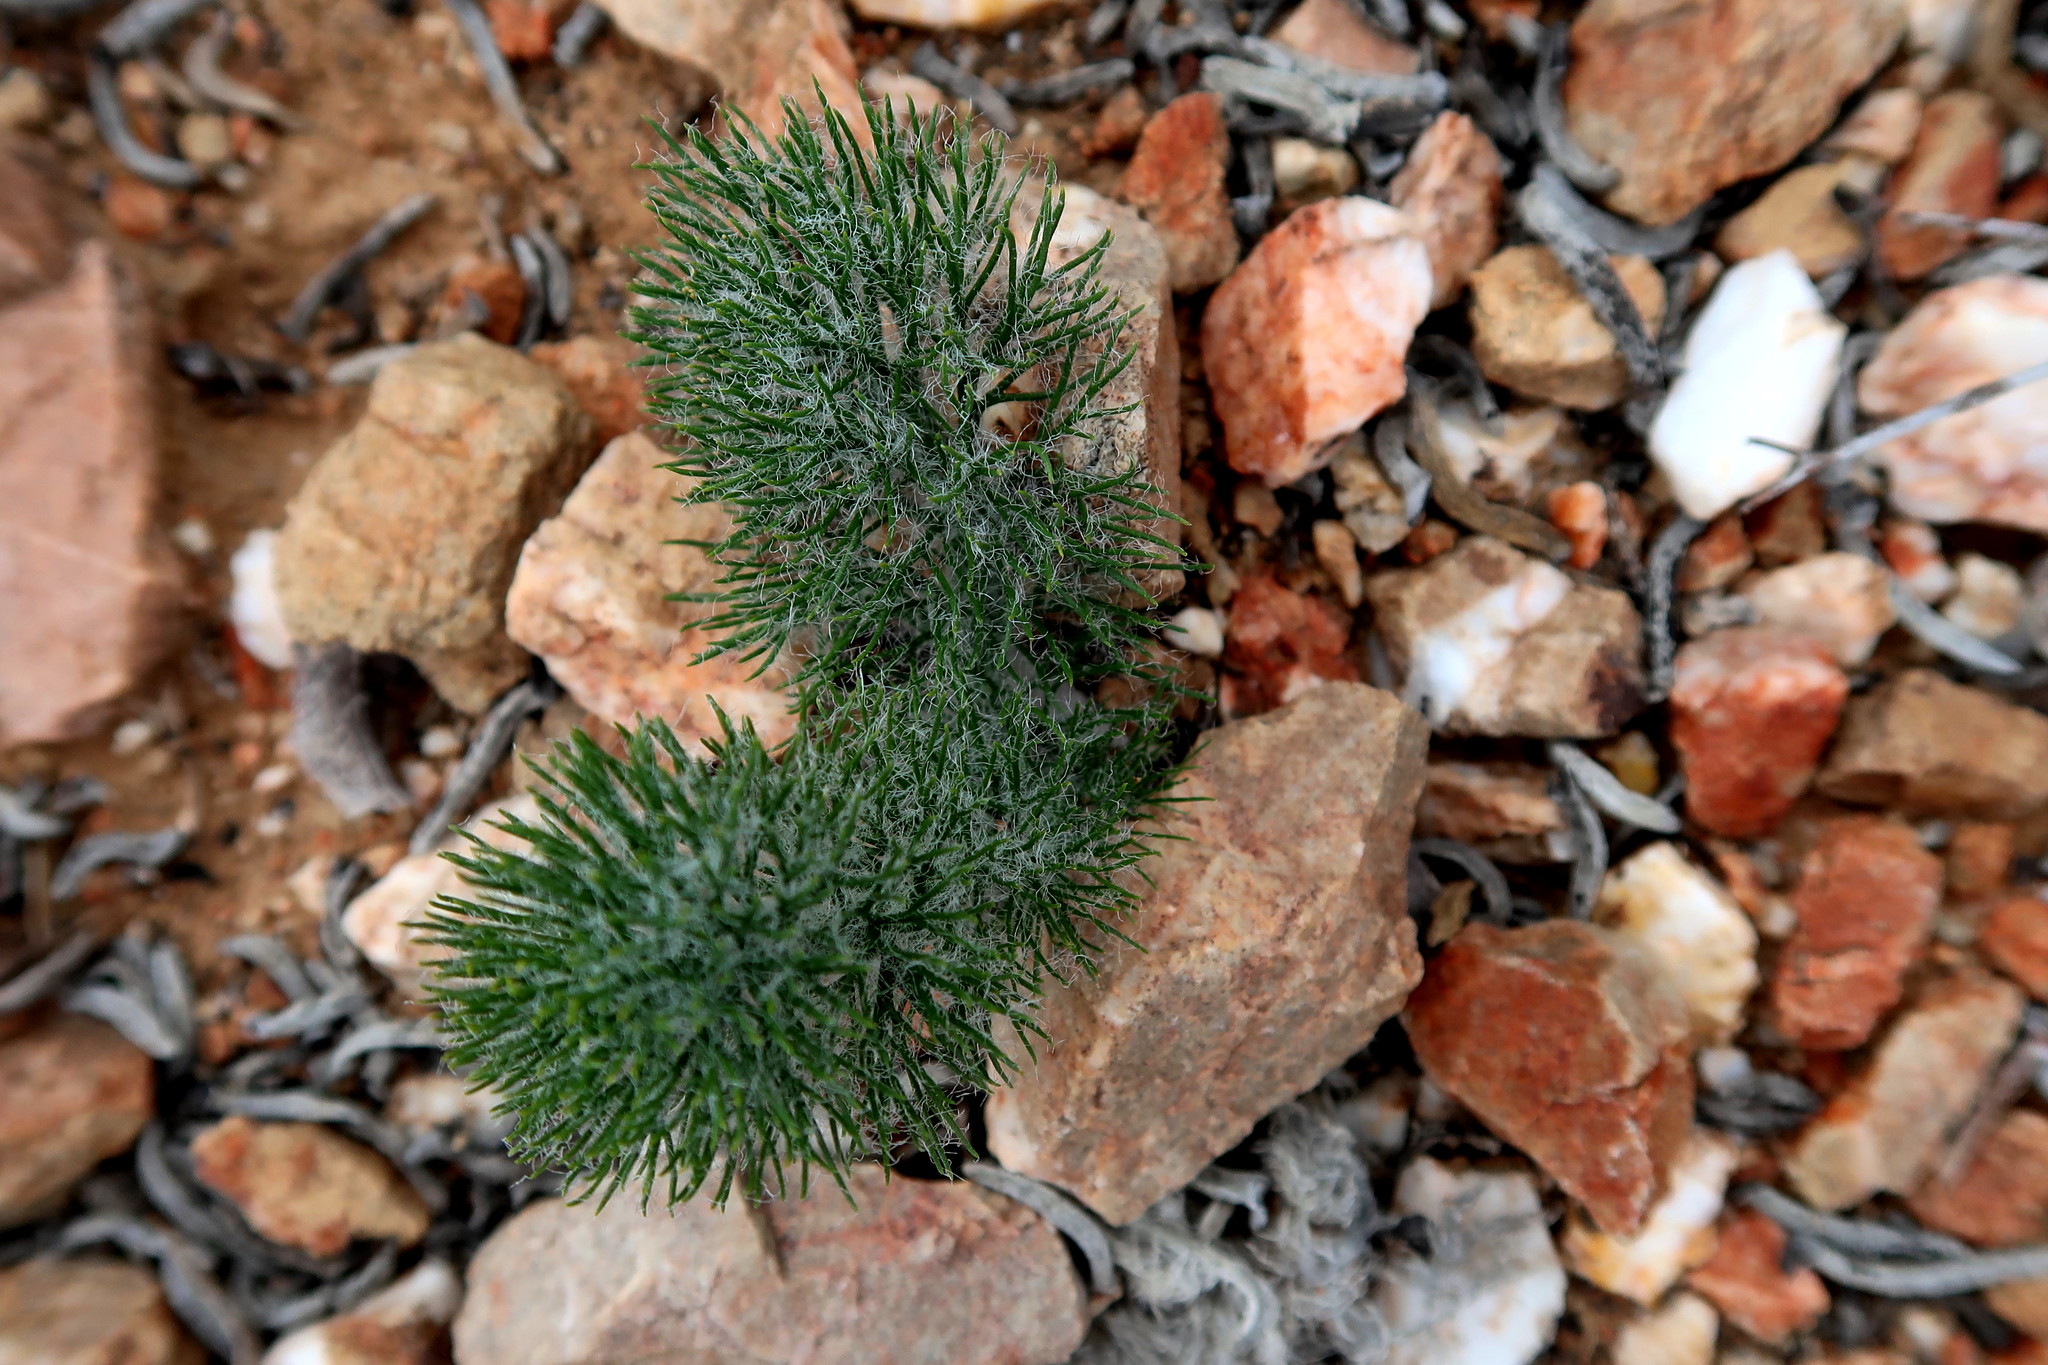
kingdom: Plantae
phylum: Tracheophyta
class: Liliopsida
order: Asparagales
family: Asparagaceae
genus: Eriospermum
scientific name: Eriospermum paradoxum
